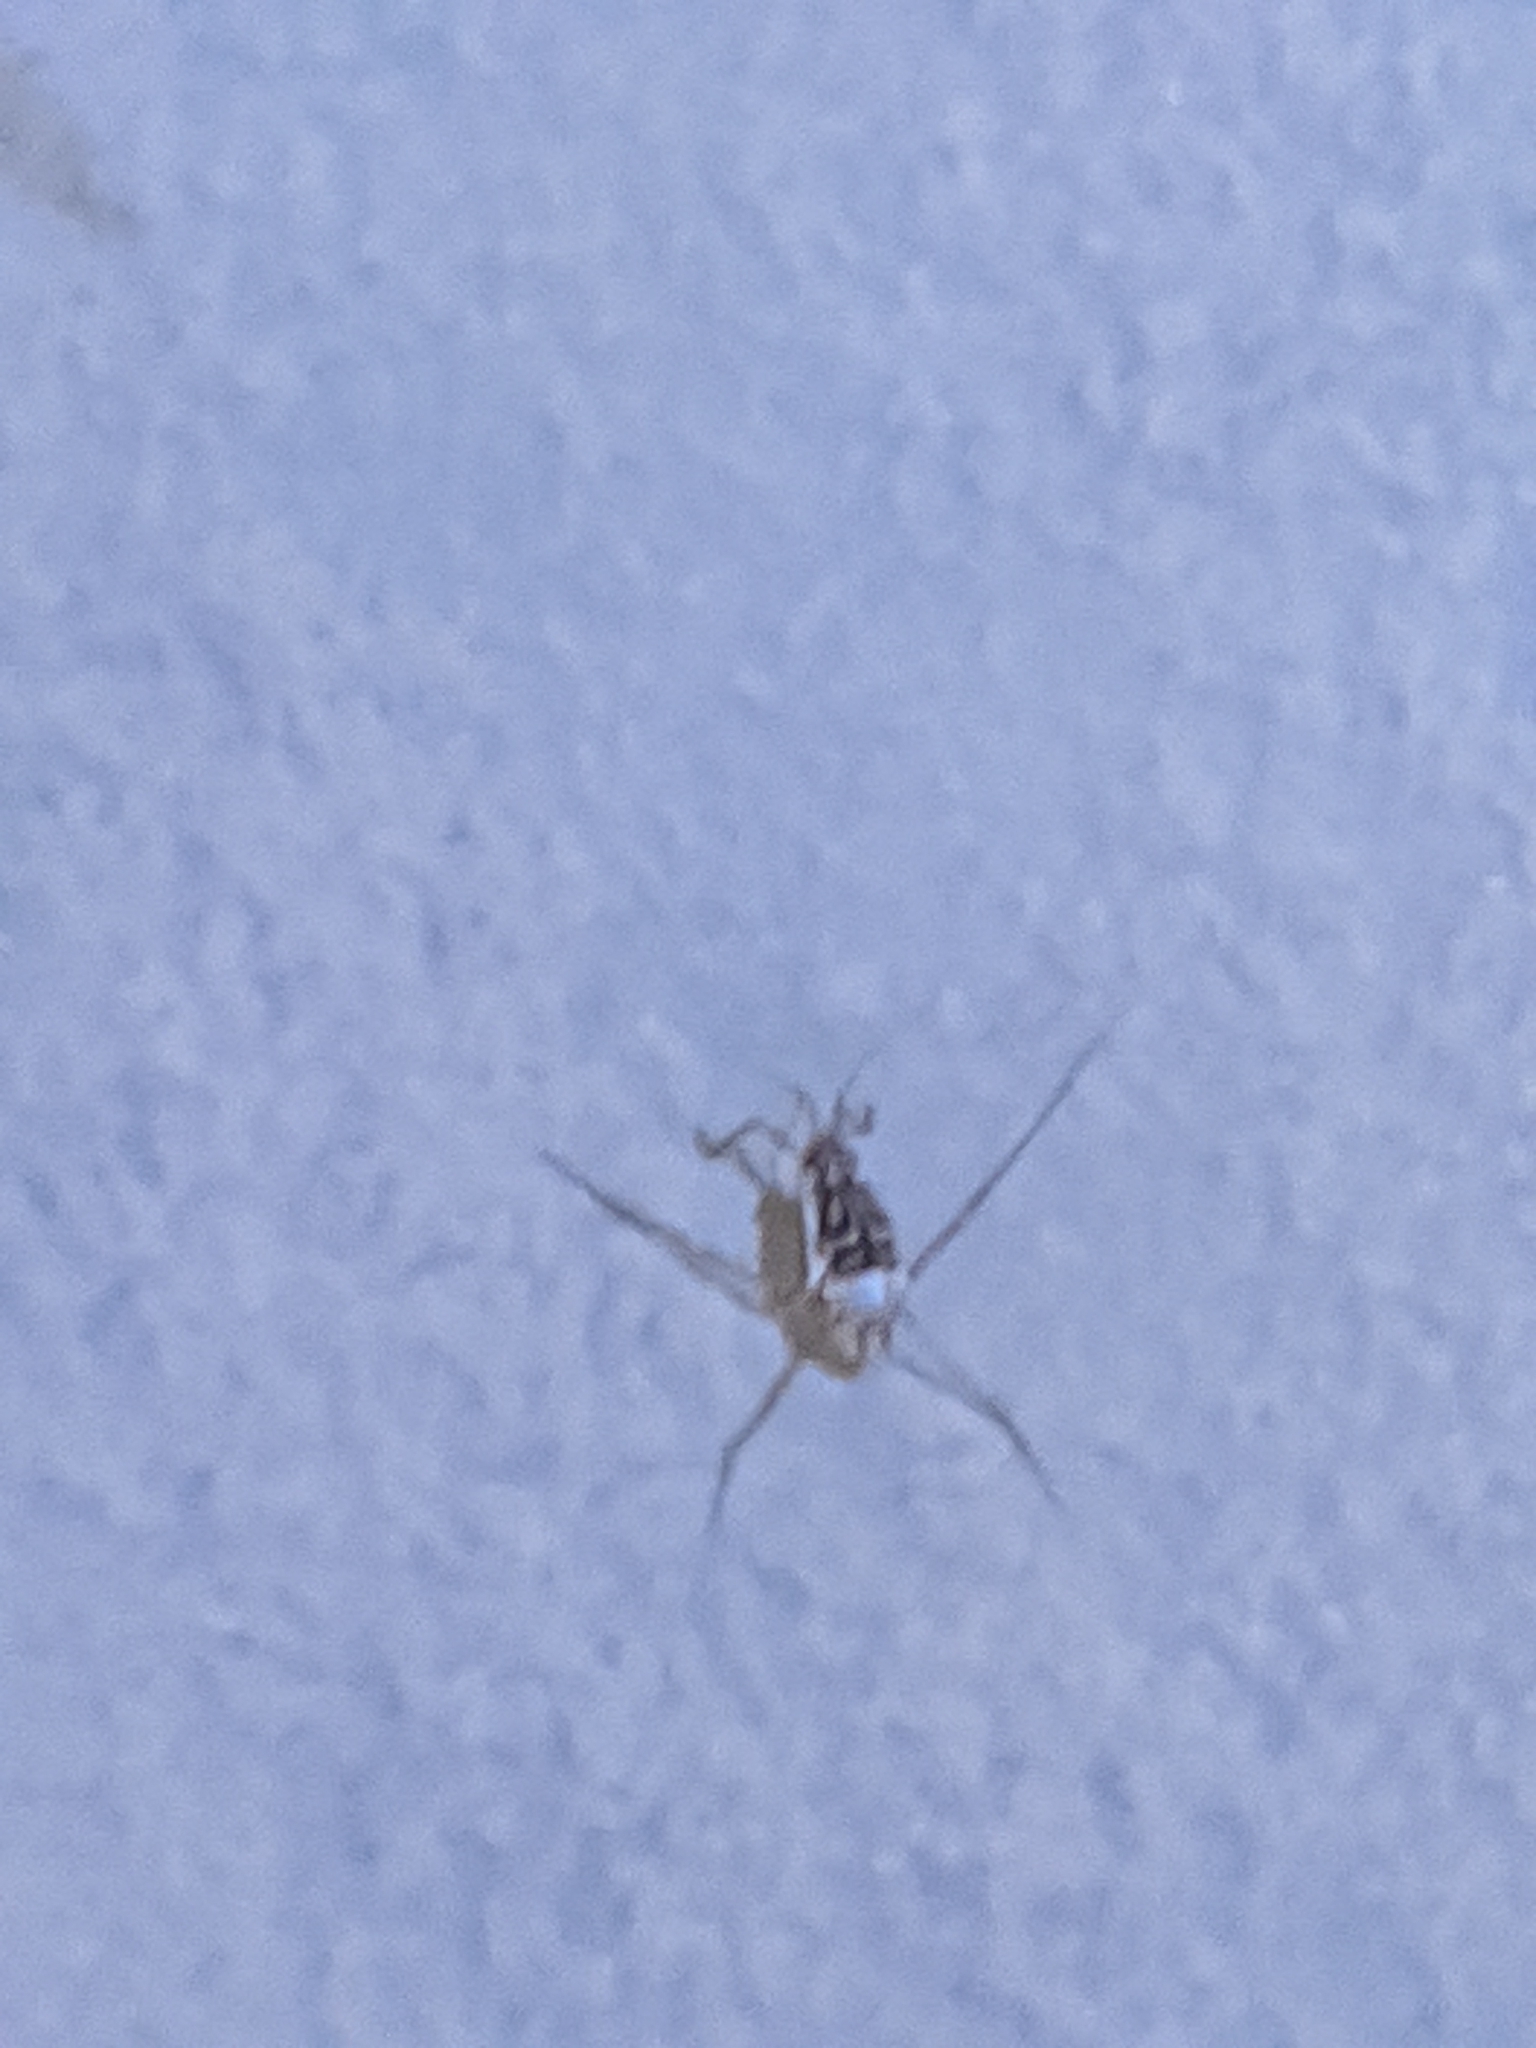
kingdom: Animalia
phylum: Arthropoda
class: Insecta
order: Hemiptera
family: Gerridae
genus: Trepobates
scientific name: Trepobates
